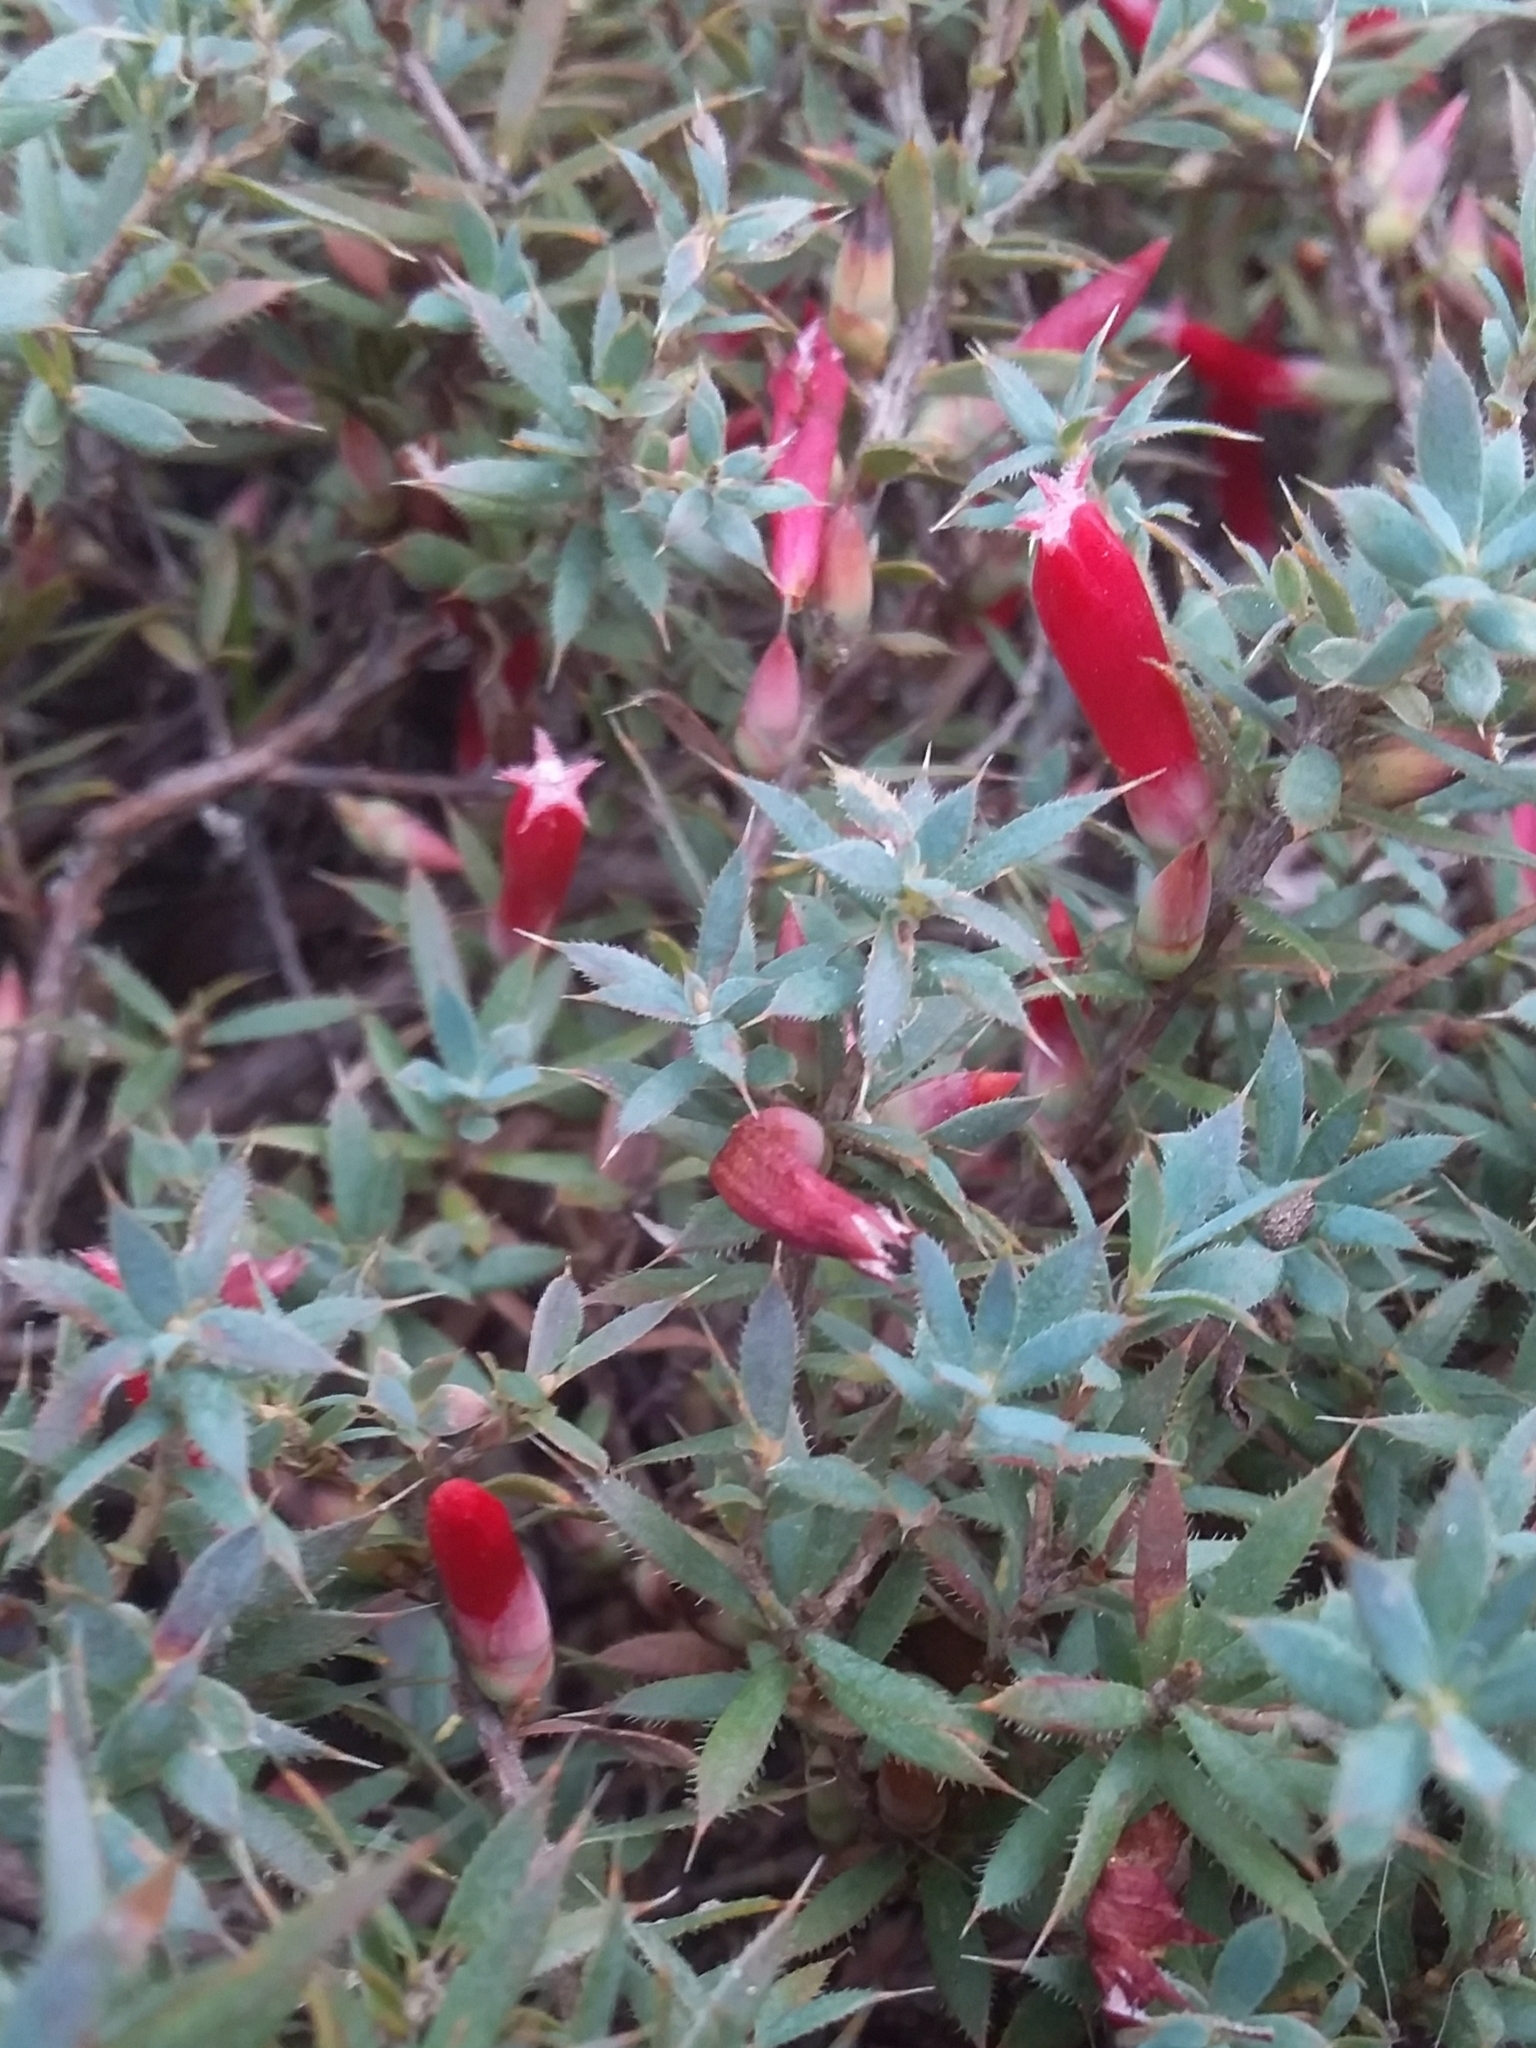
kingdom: Plantae
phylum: Tracheophyta
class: Magnoliopsida
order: Ericales
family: Ericaceae
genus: Styphelia
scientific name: Styphelia humifusa
